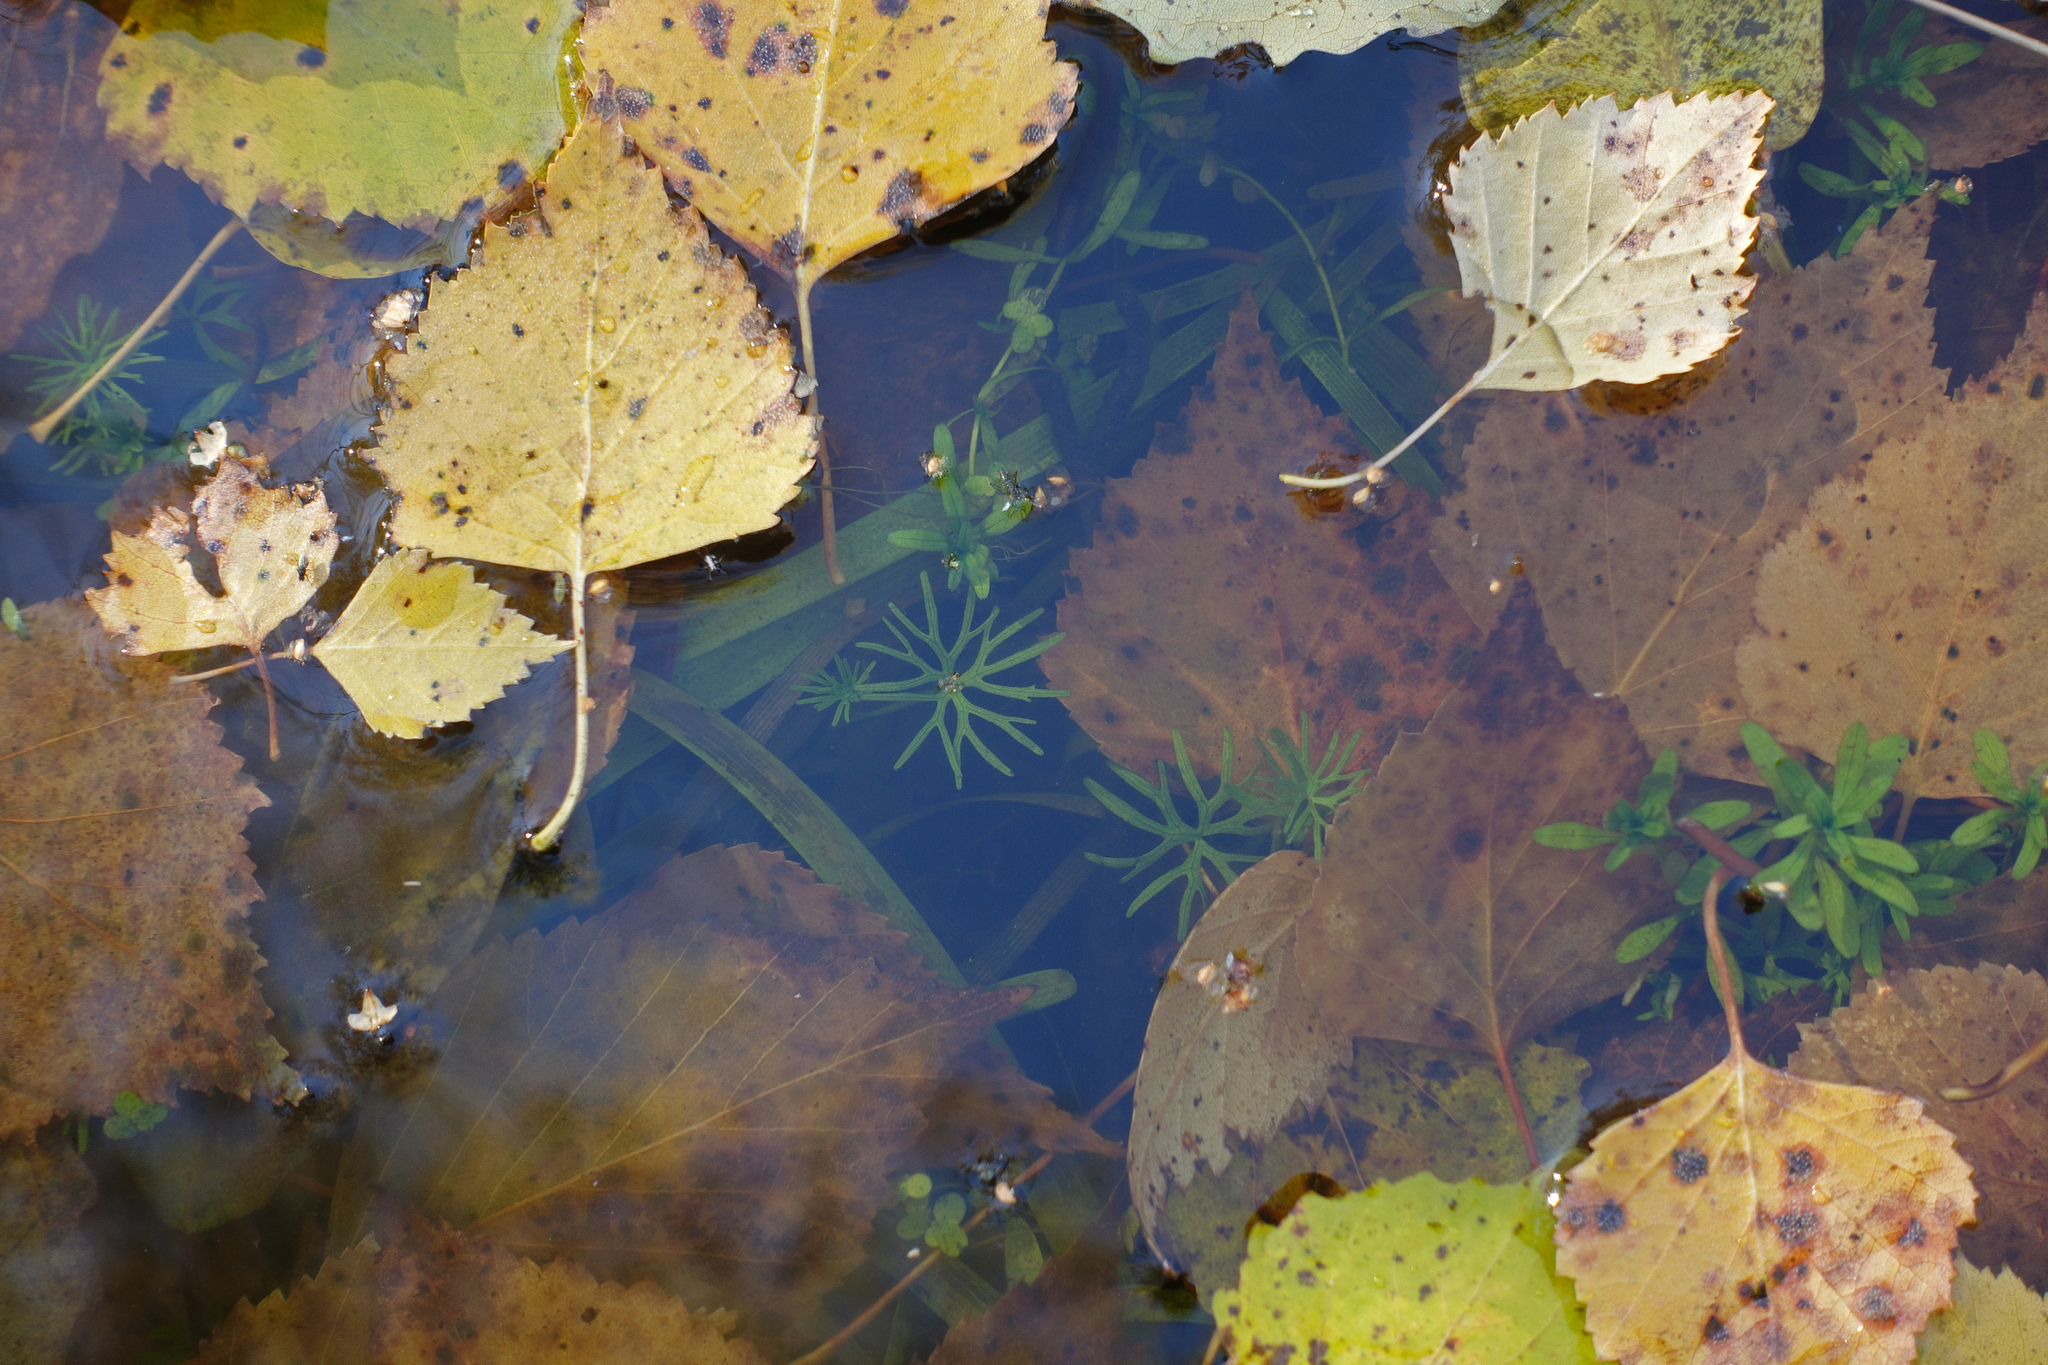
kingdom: Plantae
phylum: Tracheophyta
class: Magnoliopsida
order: Ranunculales
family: Ranunculaceae
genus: Ranunculus
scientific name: Ranunculus gmelinii
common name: Gmelin's buttercup
